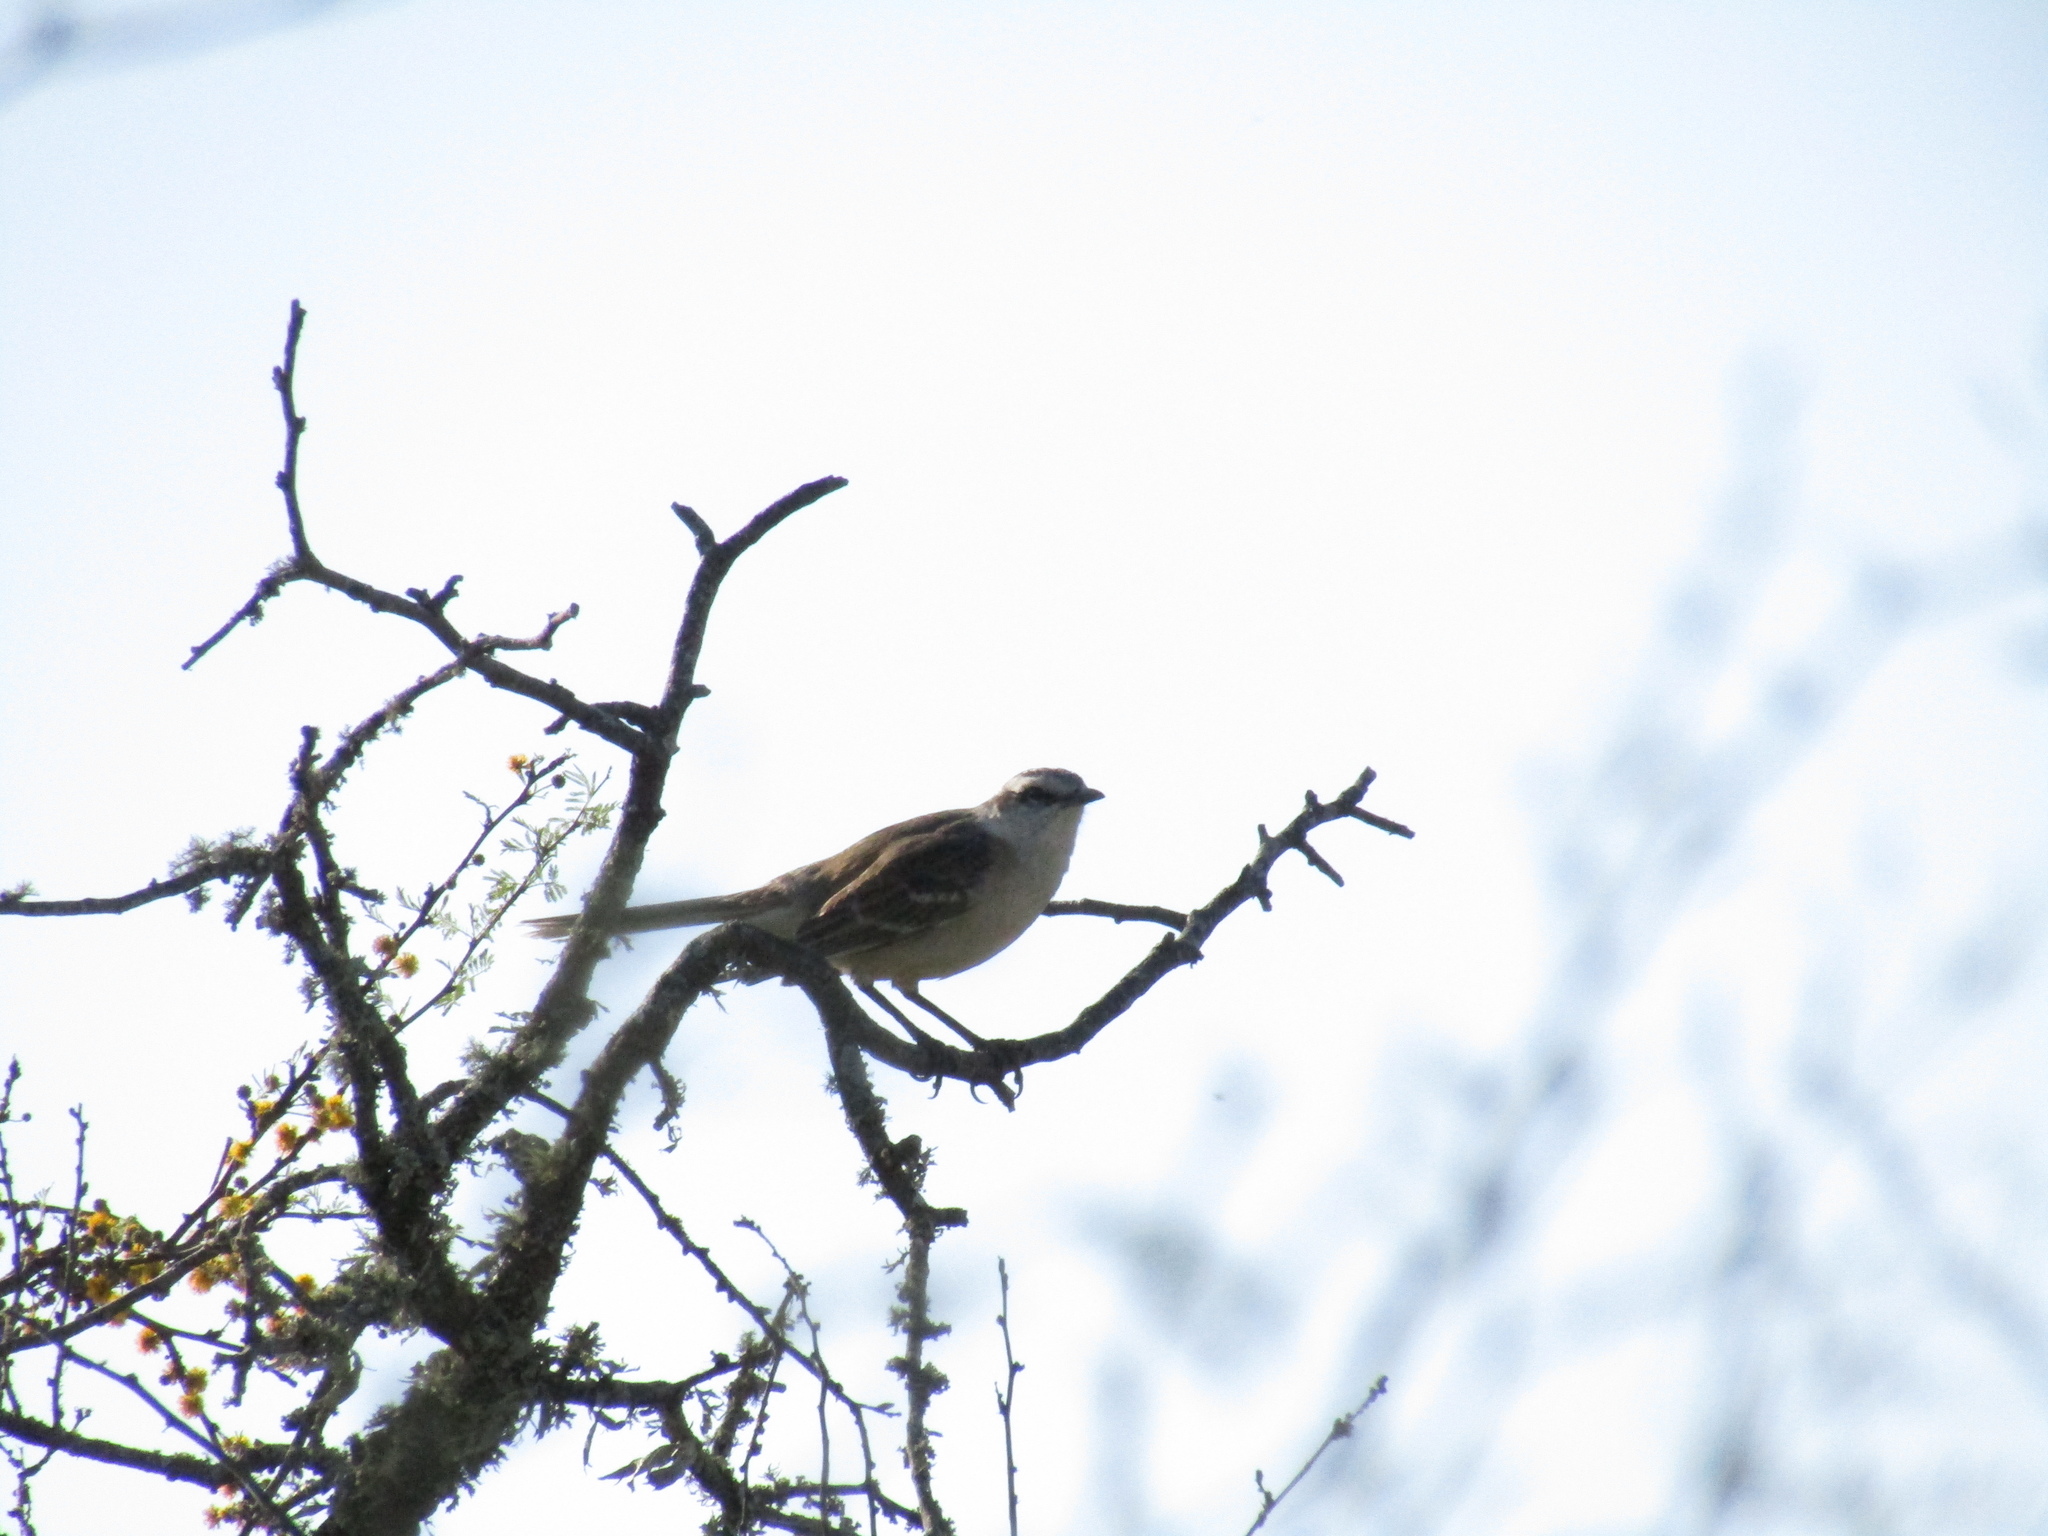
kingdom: Animalia
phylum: Chordata
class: Aves
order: Passeriformes
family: Mimidae
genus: Mimus
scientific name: Mimus saturninus
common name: Chalk-browed mockingbird
